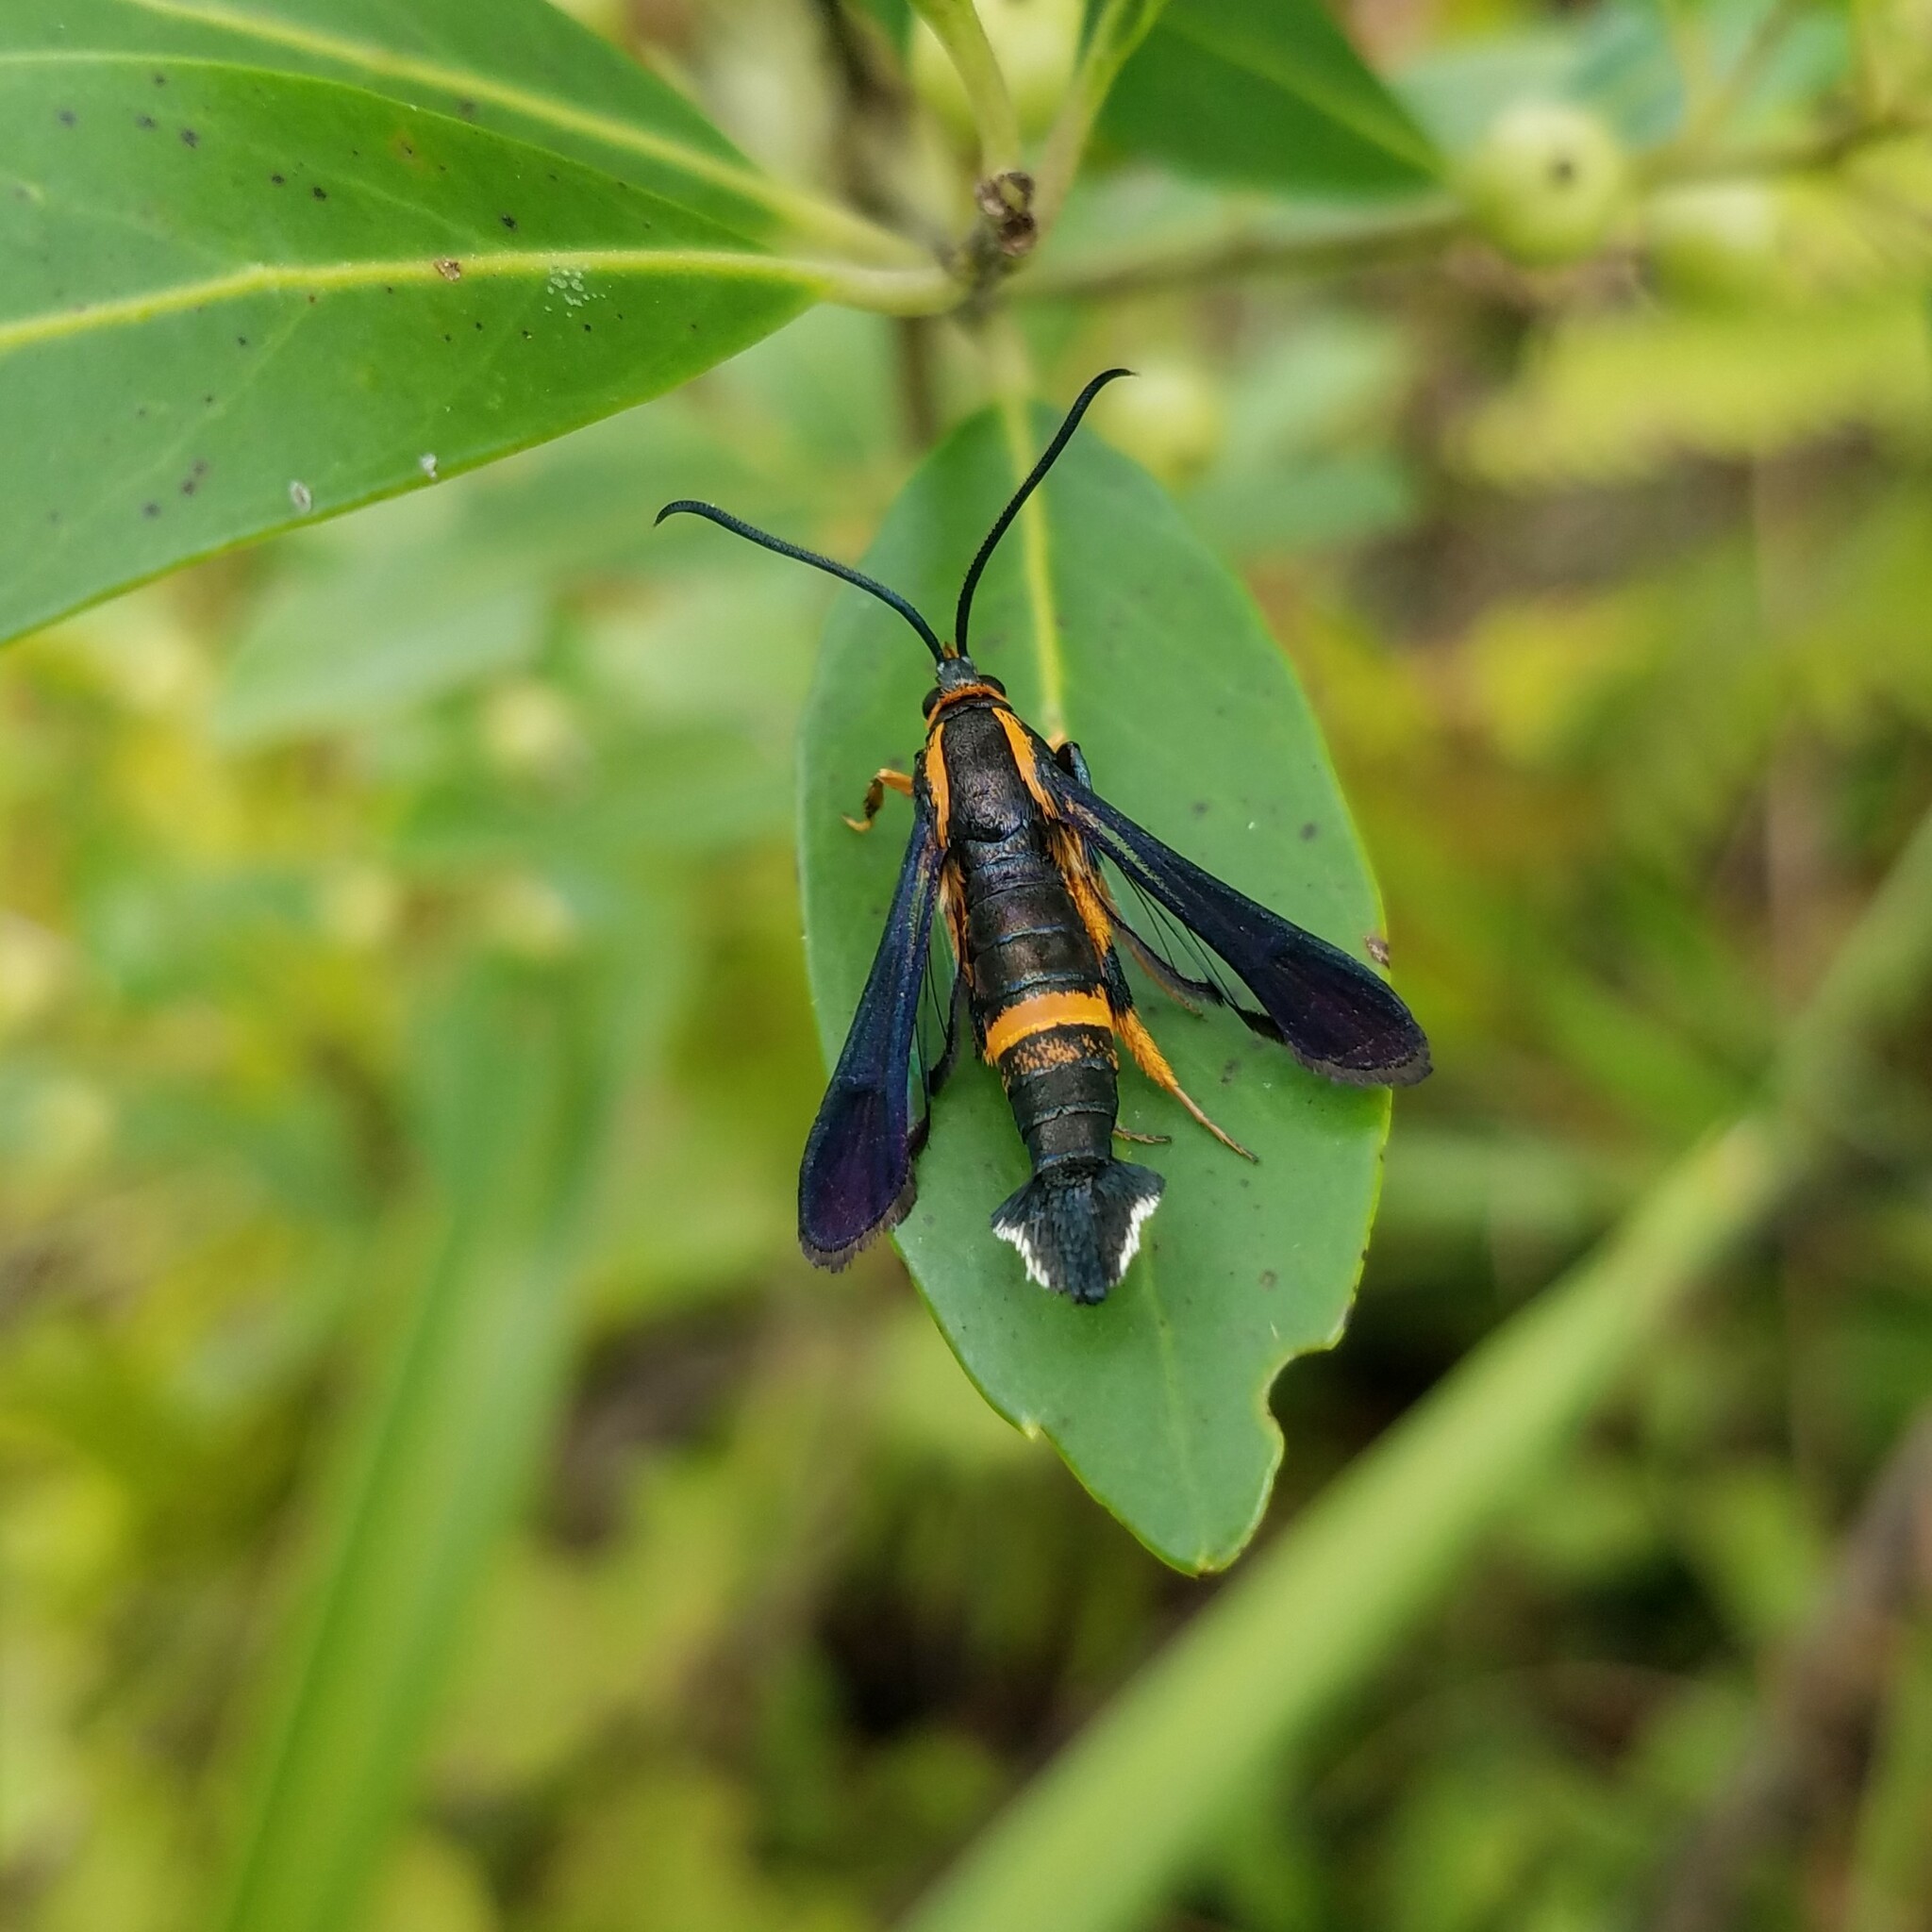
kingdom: Animalia
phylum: Arthropoda
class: Insecta
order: Lepidoptera
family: Sesiidae
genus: Synanthedon
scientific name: Synanthedon alleri
